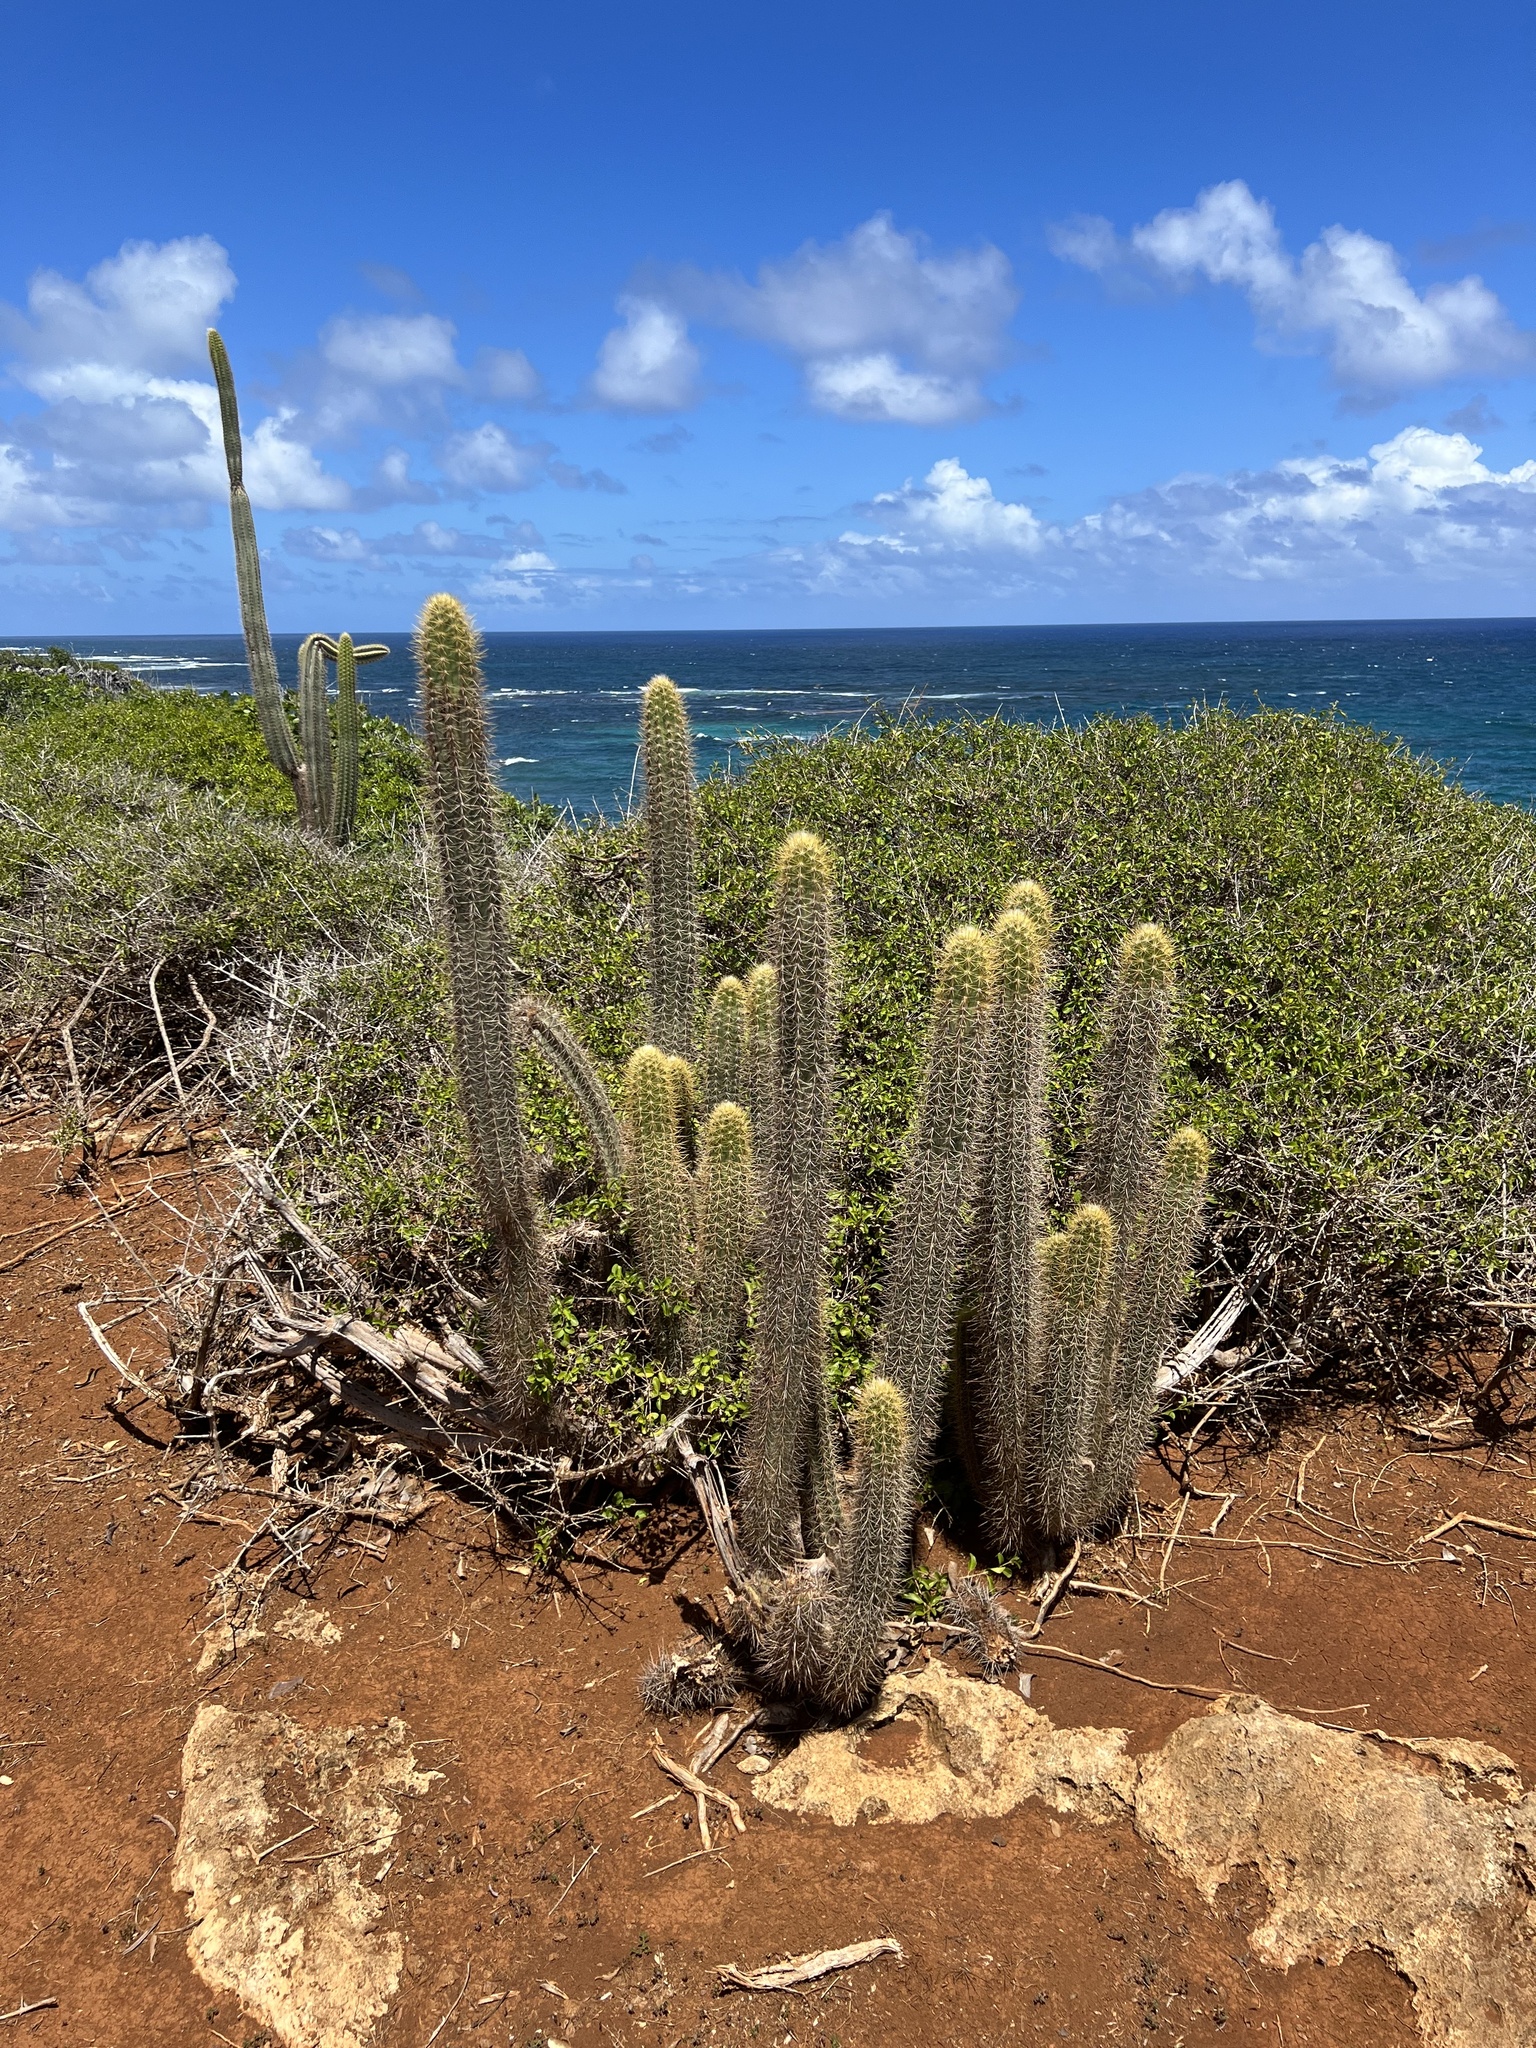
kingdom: Plantae
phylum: Tracheophyta
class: Magnoliopsida
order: Caryophyllales
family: Cactaceae
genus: Pilosocereus
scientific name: Pilosocereus curtisii
